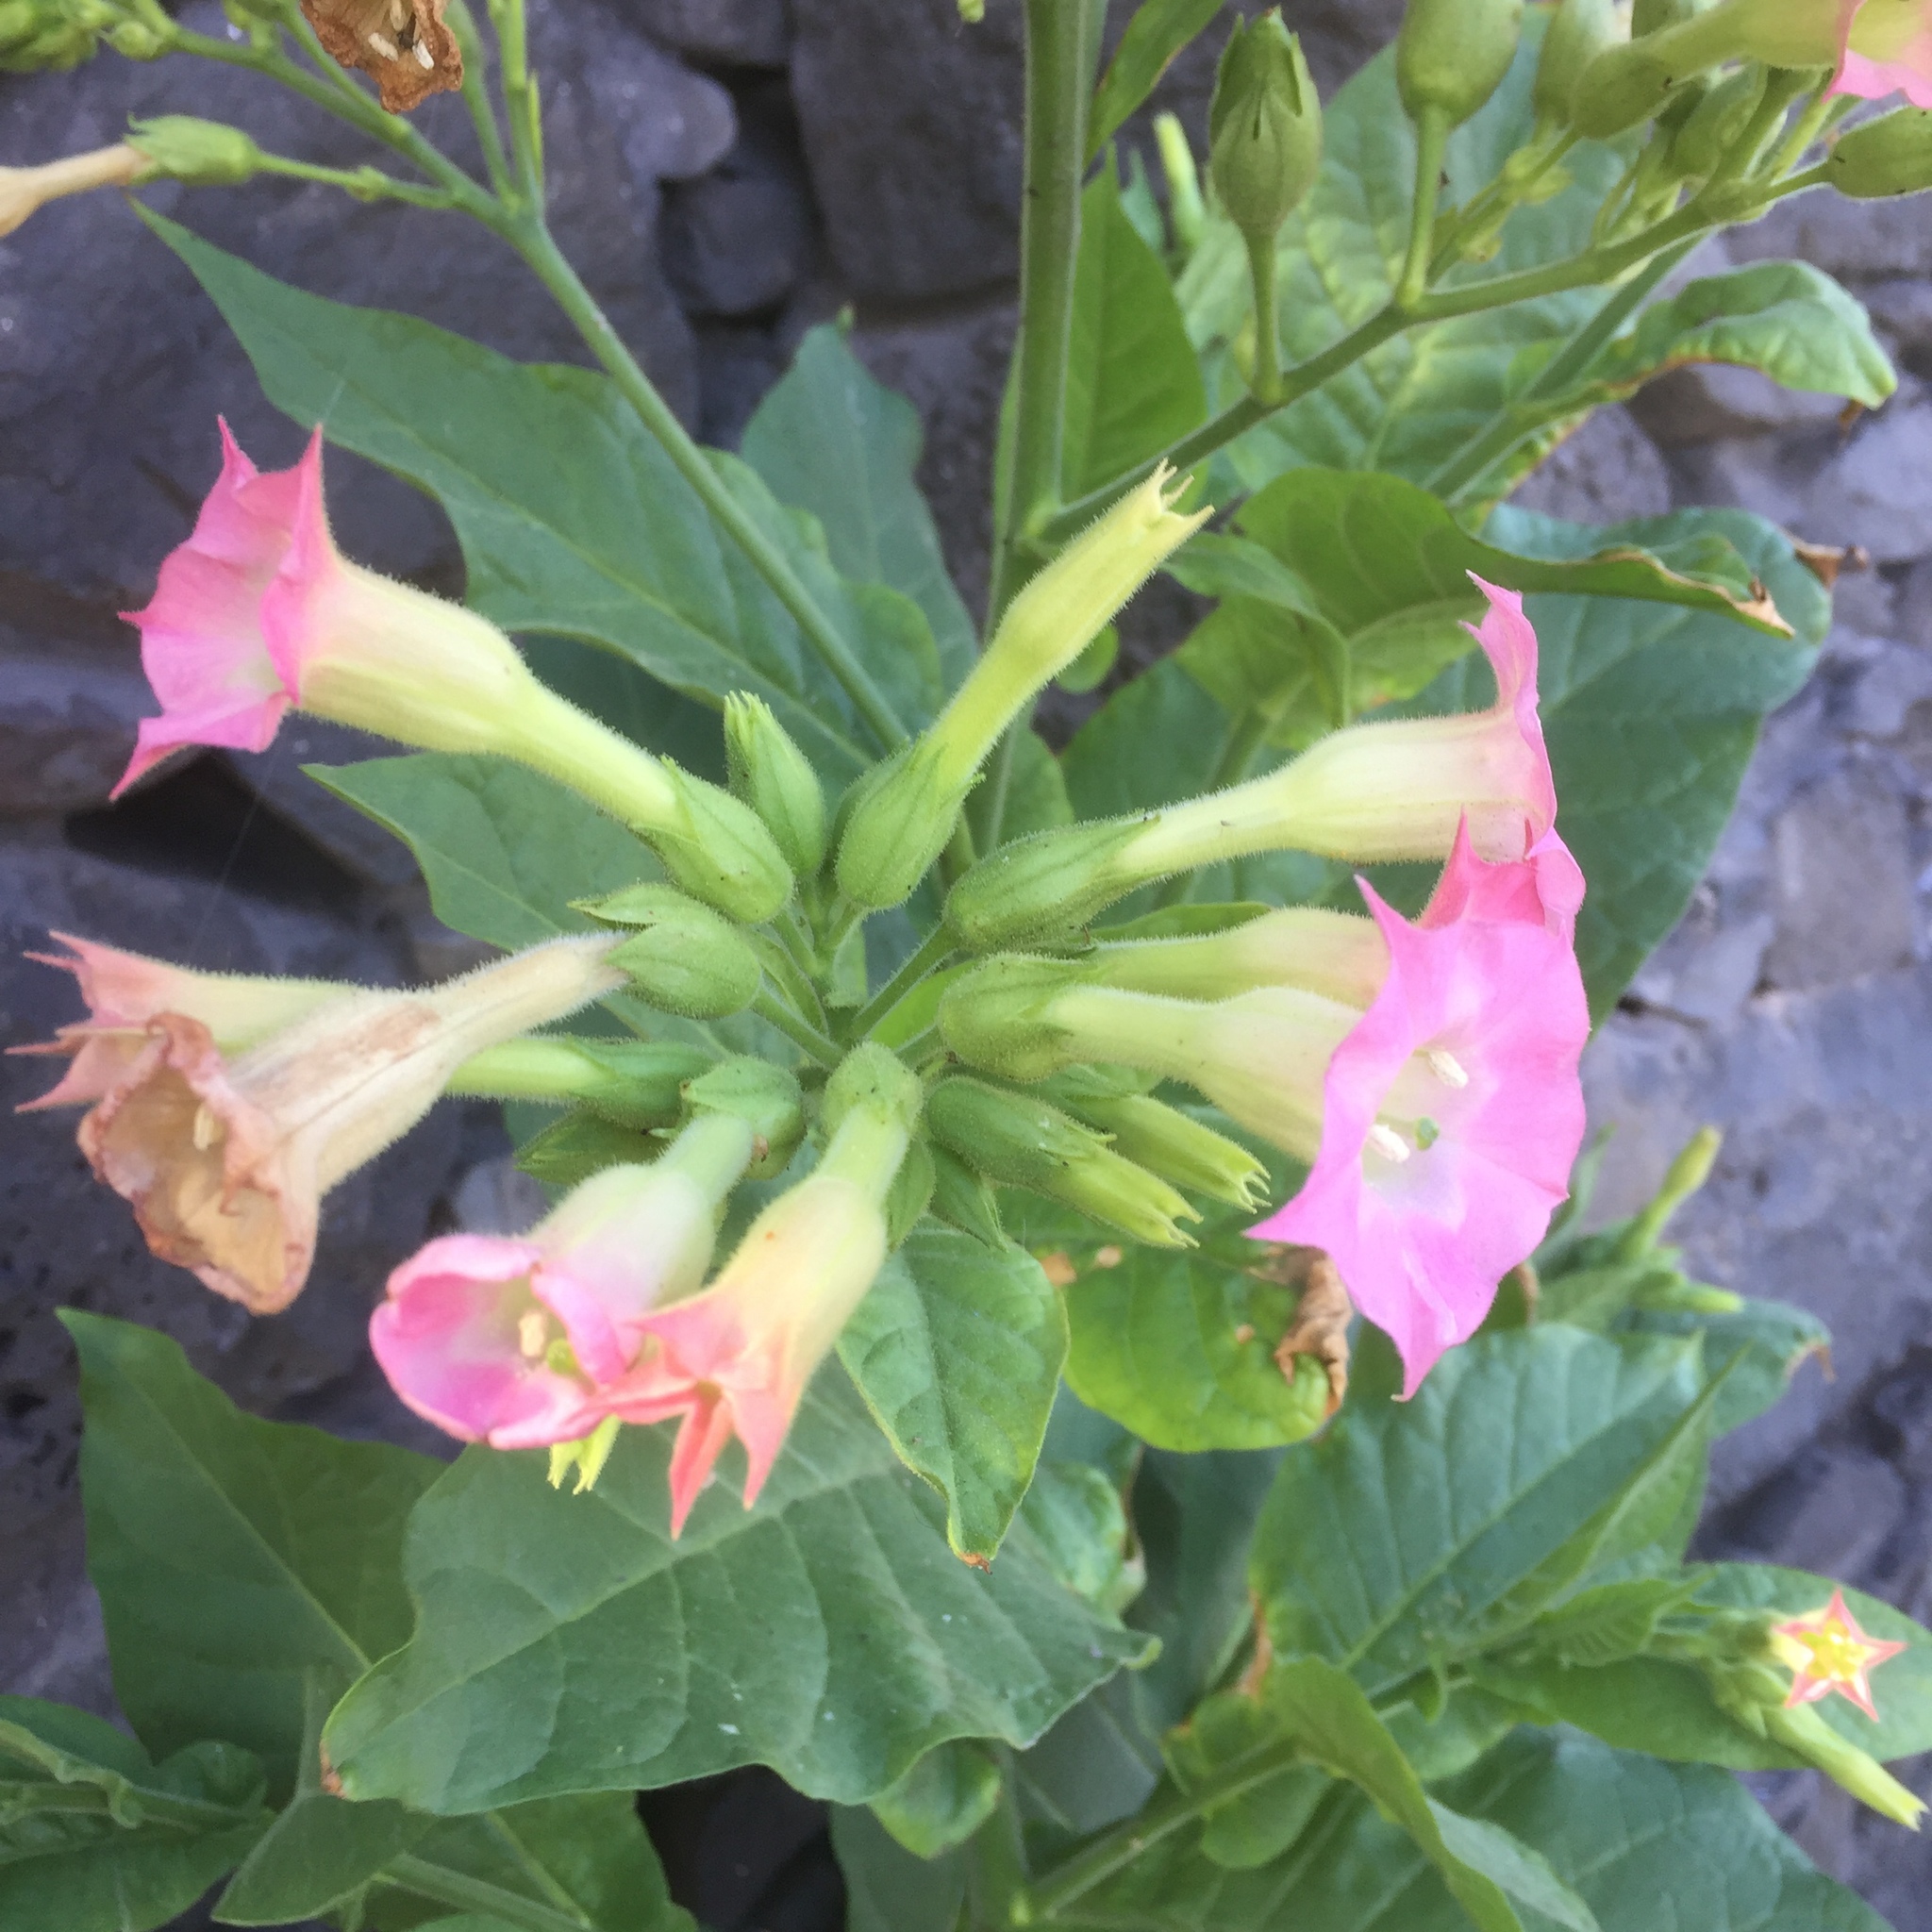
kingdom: Plantae
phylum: Tracheophyta
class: Magnoliopsida
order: Solanales
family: Solanaceae
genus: Nicotiana
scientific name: Nicotiana tabacum
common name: Tobacco
